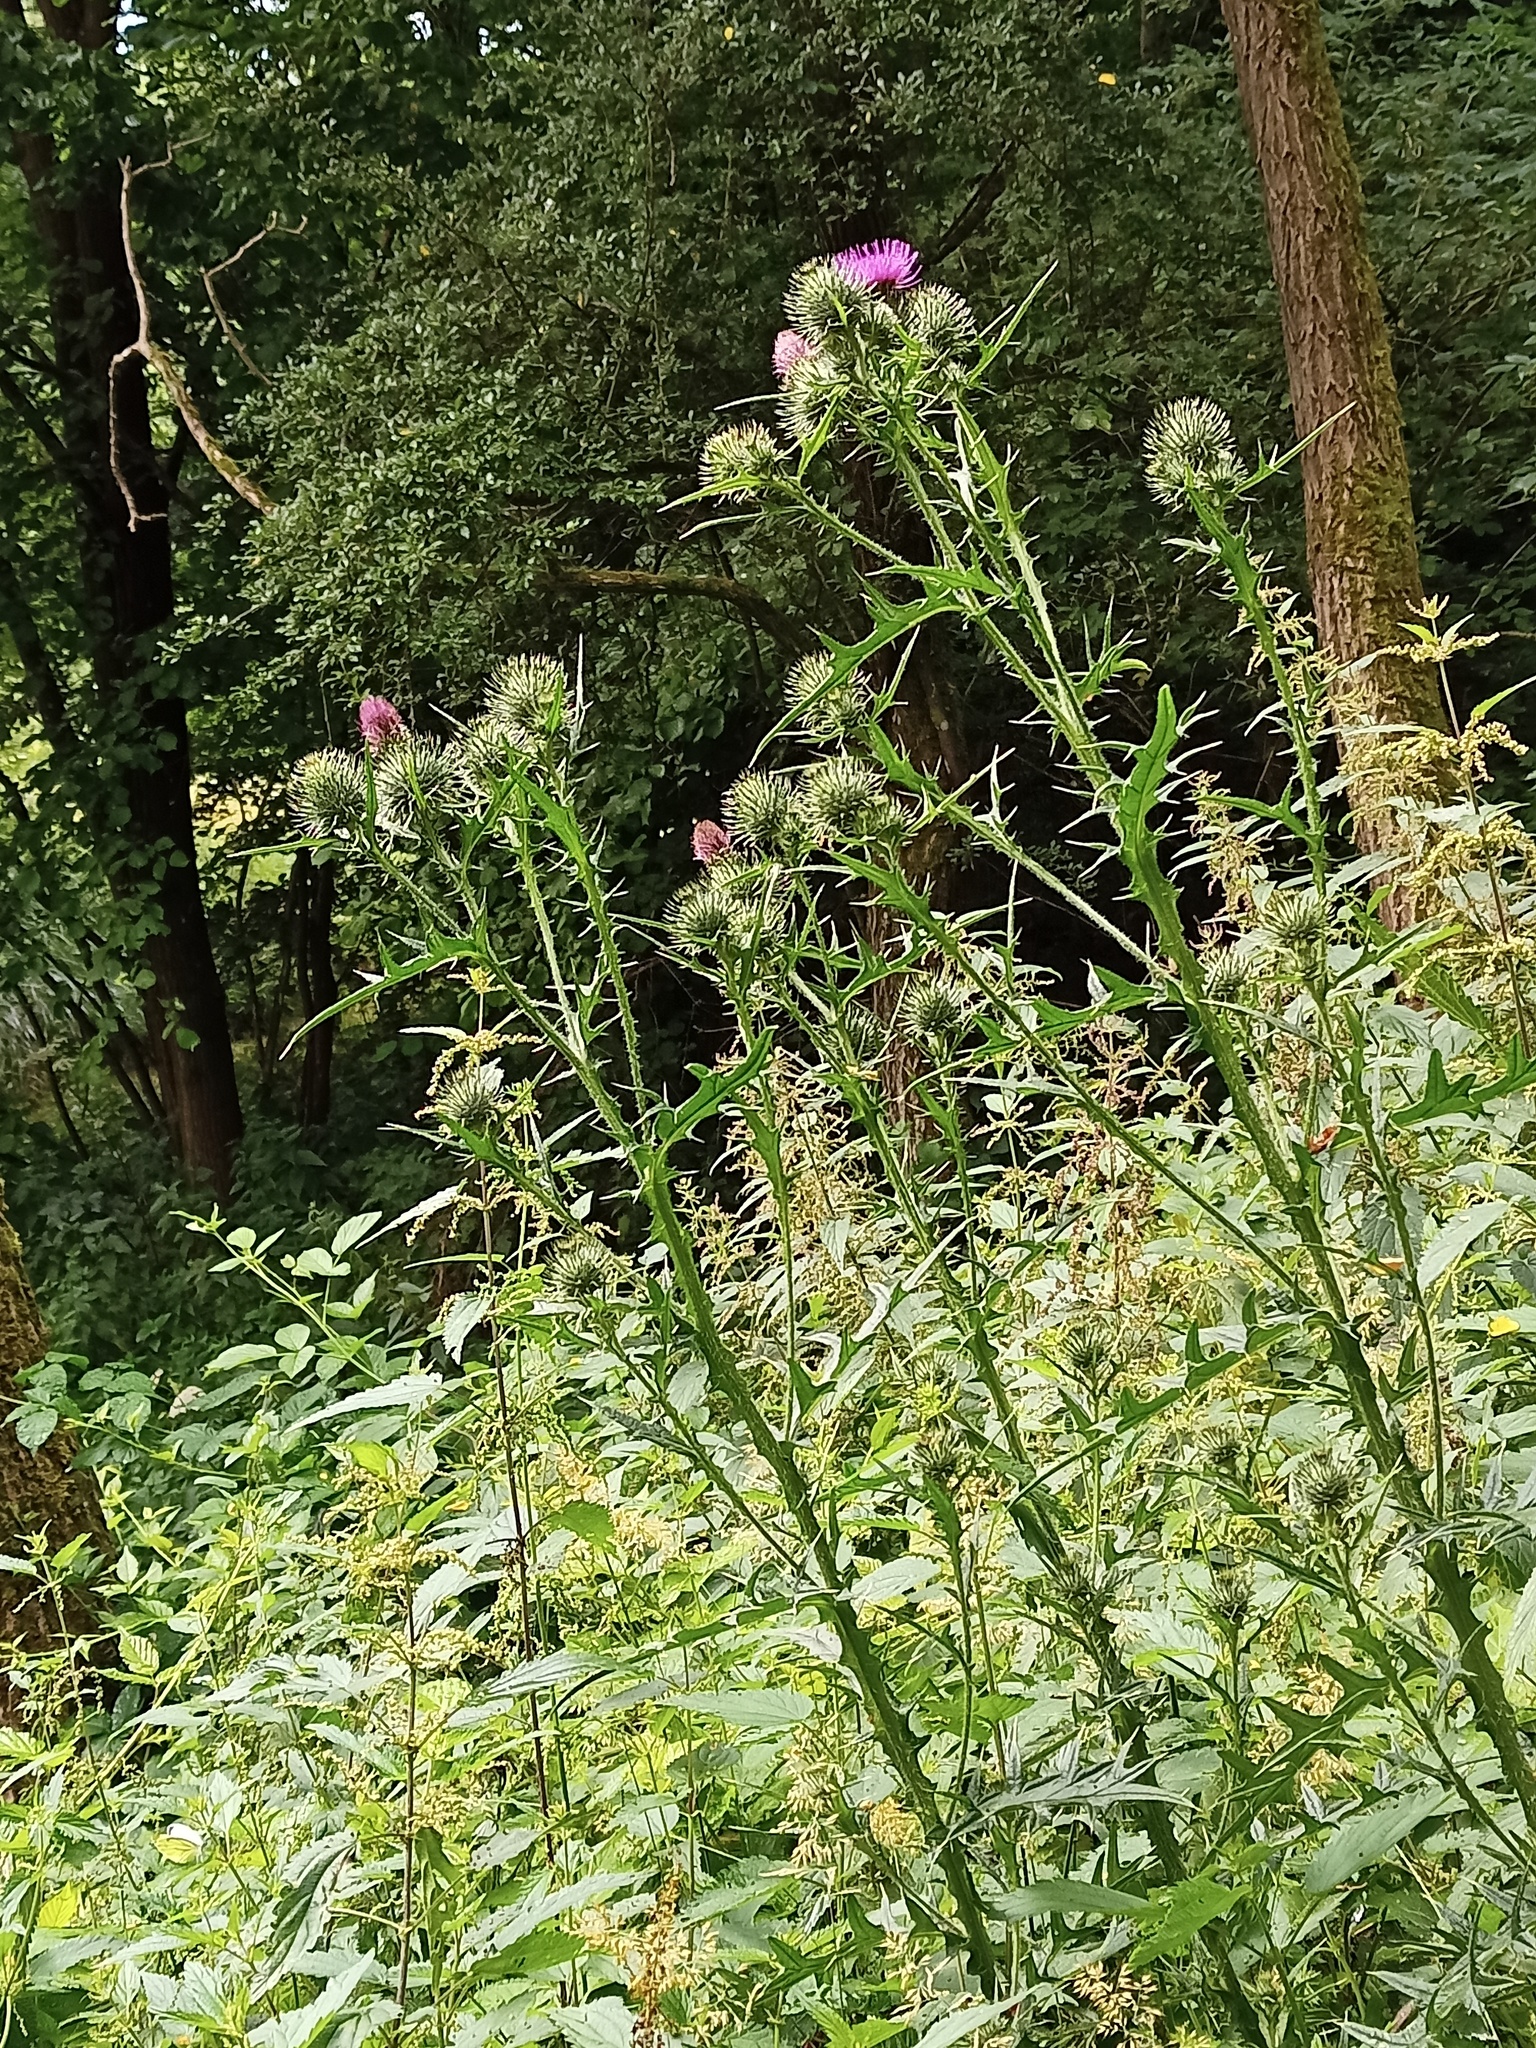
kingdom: Plantae
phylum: Tracheophyta
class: Magnoliopsida
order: Asterales
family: Asteraceae
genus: Cirsium
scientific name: Cirsium vulgare
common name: Bull thistle
